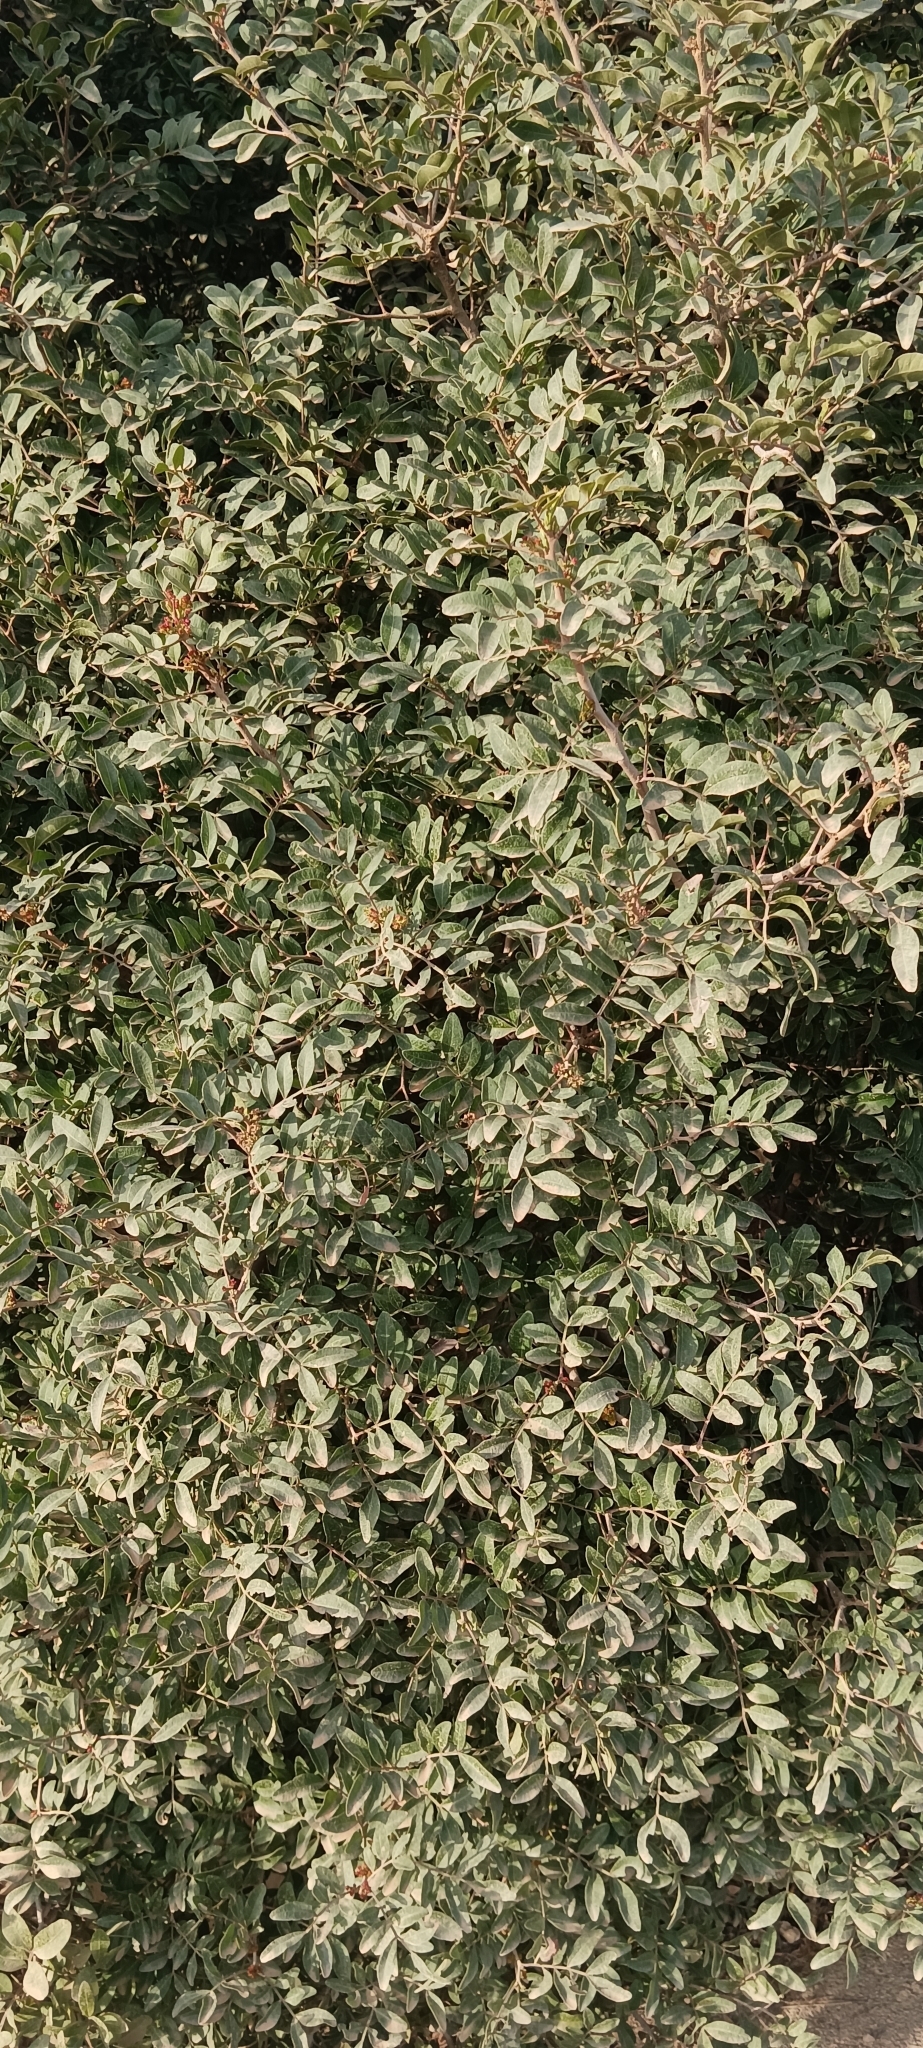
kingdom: Plantae
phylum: Tracheophyta
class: Magnoliopsida
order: Sapindales
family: Anacardiaceae
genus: Pistacia
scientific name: Pistacia lentiscus
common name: Lentisk
